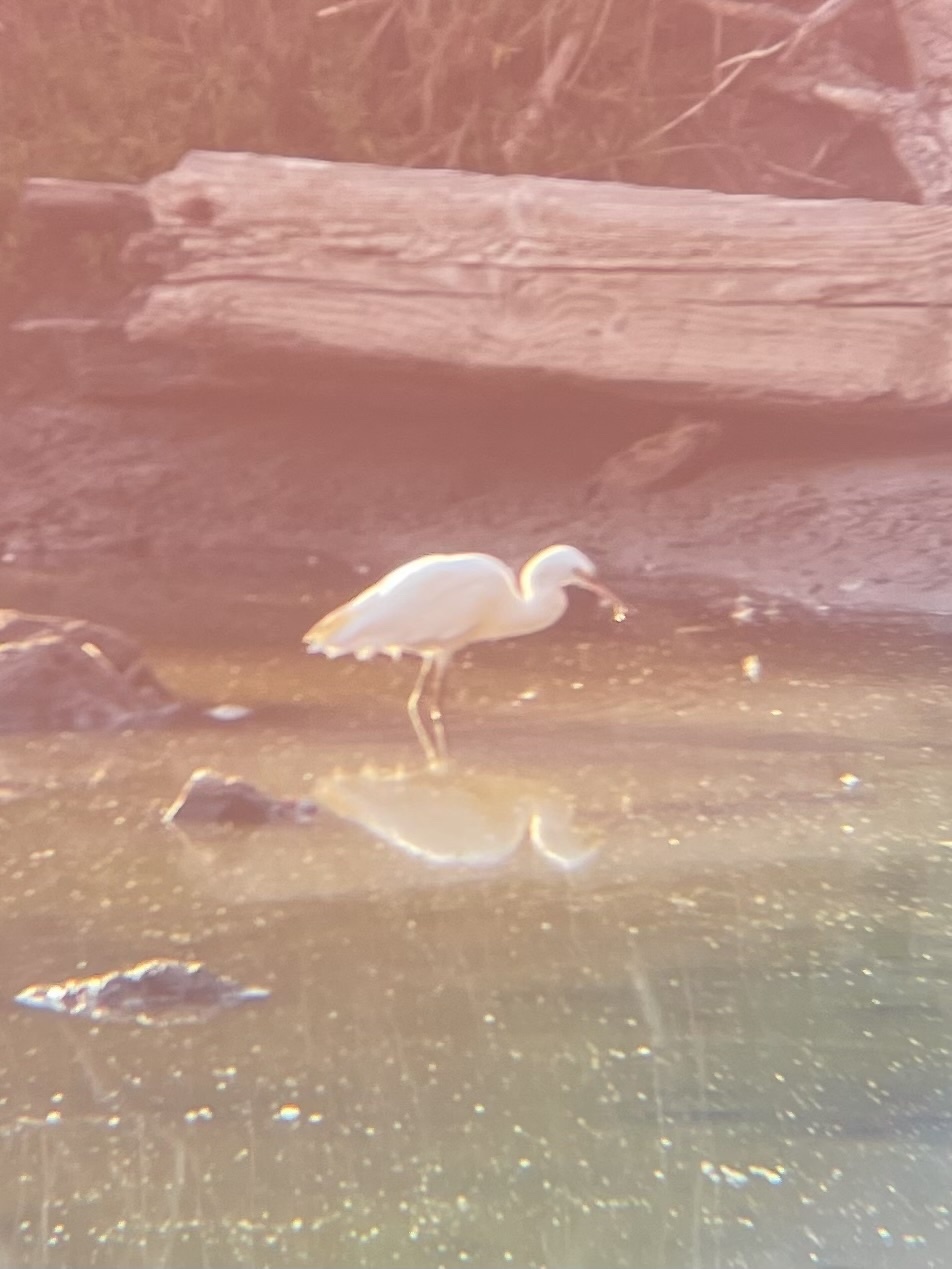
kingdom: Animalia
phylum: Chordata
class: Aves
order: Pelecaniformes
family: Ardeidae
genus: Bubulcus
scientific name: Bubulcus ibis
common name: Cattle egret
